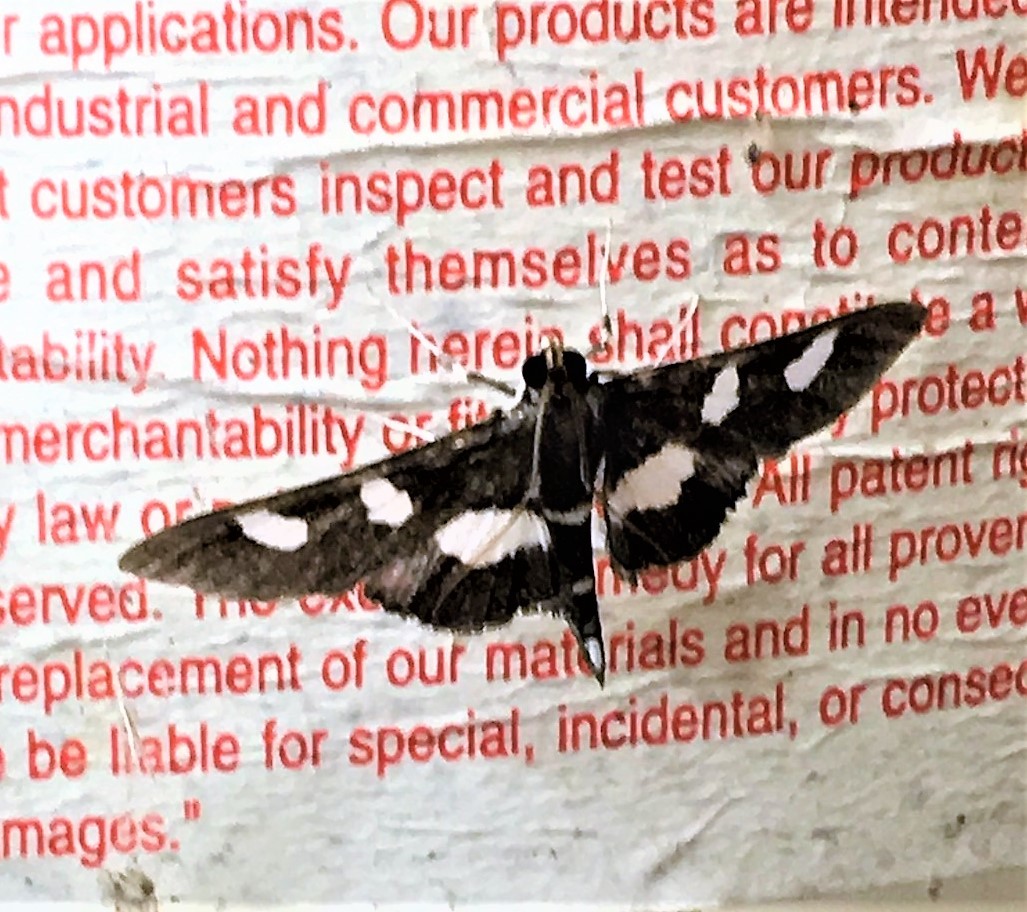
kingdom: Animalia
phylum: Arthropoda
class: Insecta
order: Lepidoptera
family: Crambidae
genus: Desmia
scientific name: Desmia
